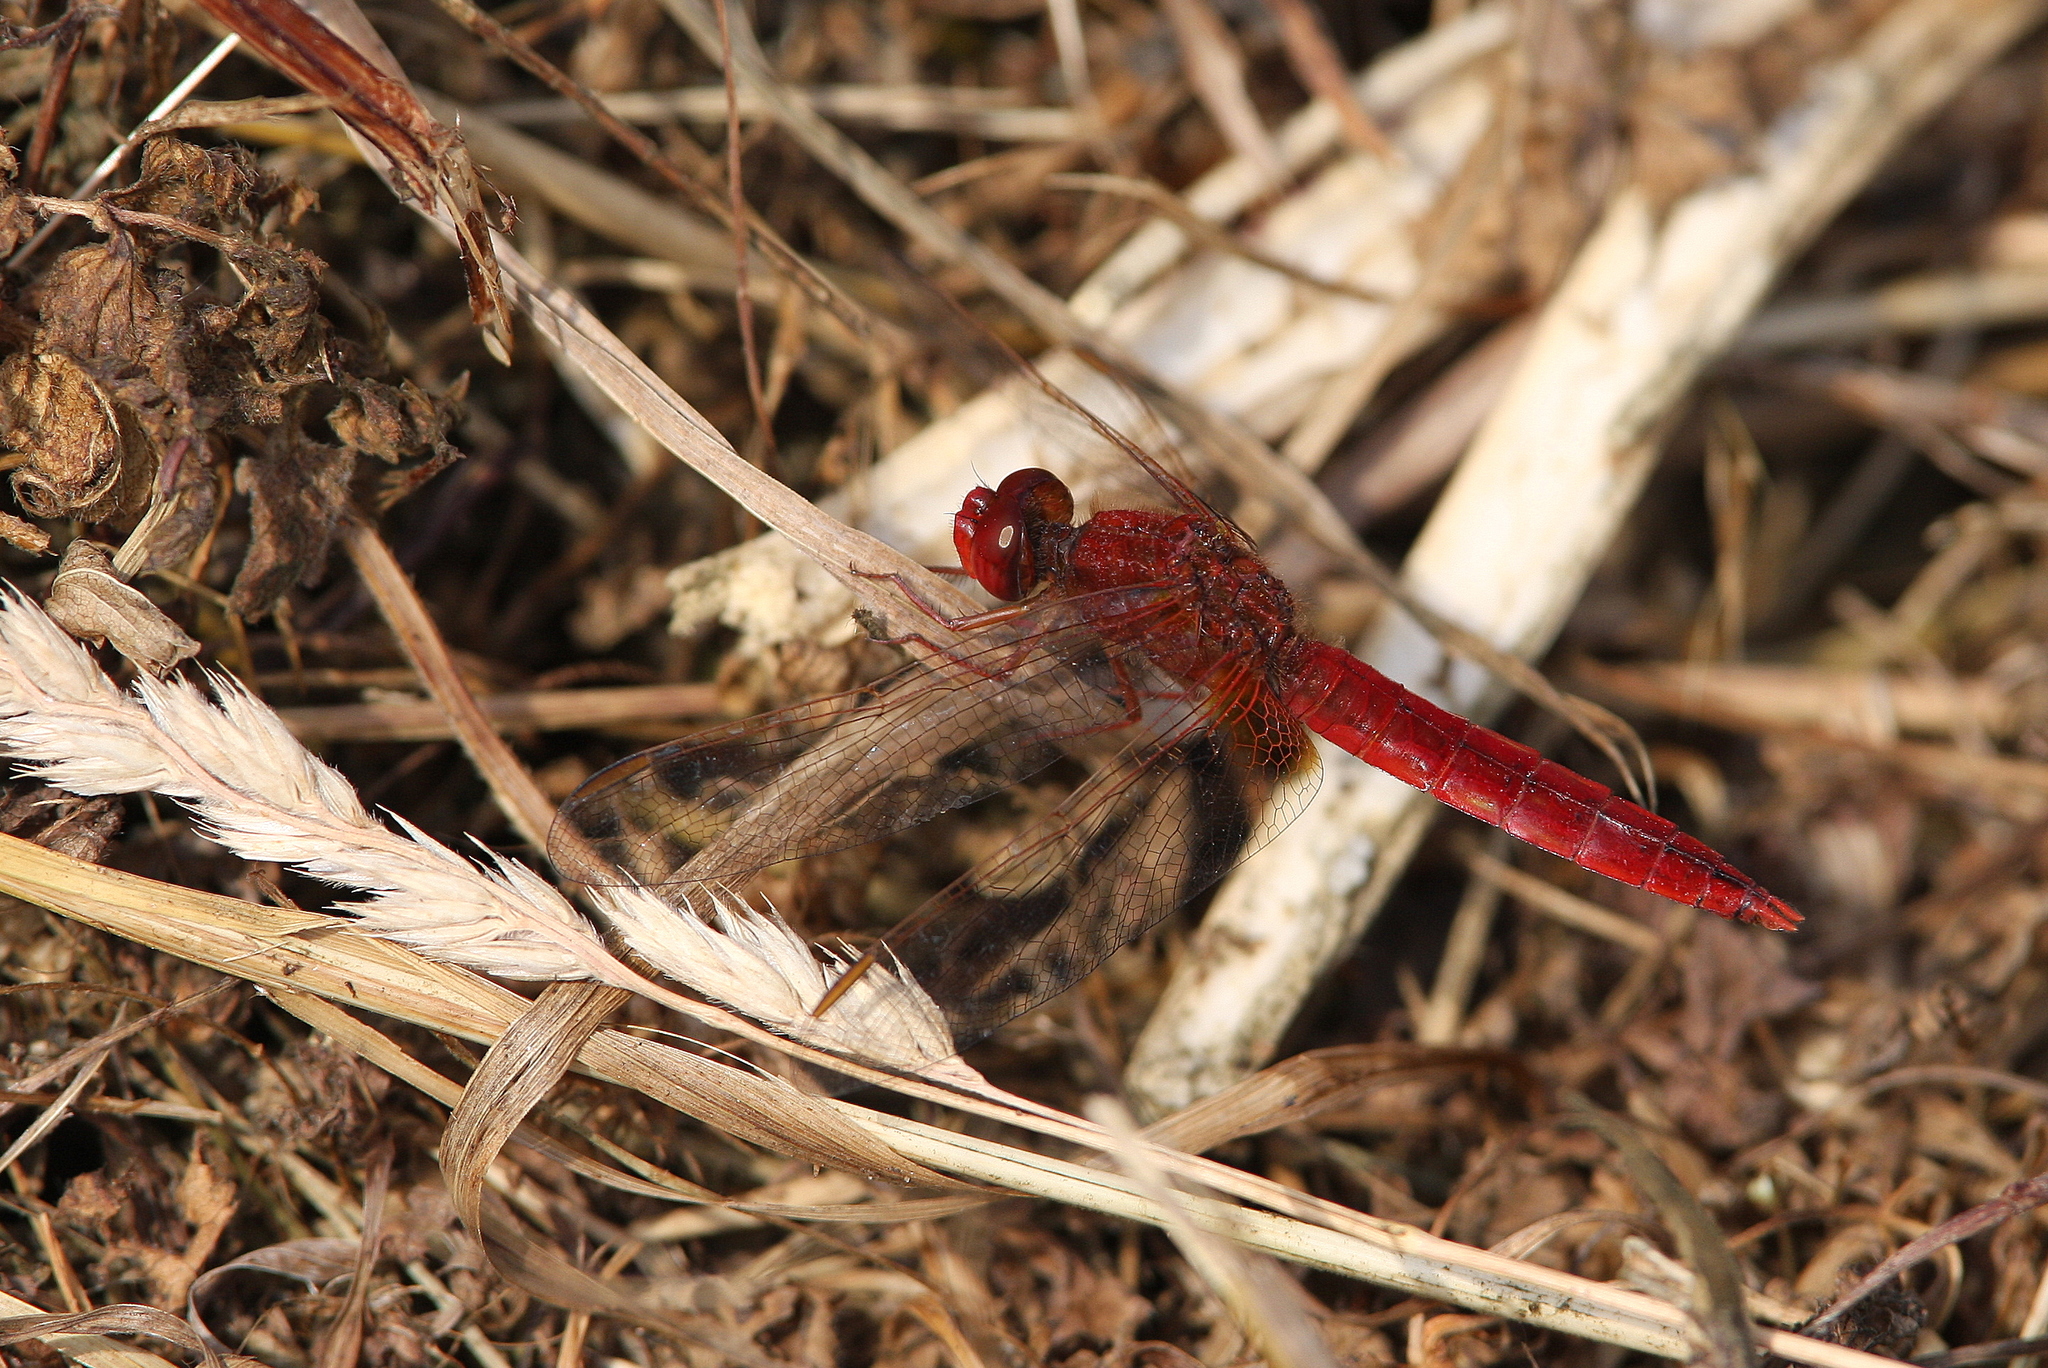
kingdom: Animalia
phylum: Arthropoda
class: Insecta
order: Odonata
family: Libellulidae
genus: Crocothemis
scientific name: Crocothemis erythraea
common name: Scarlet dragonfly
